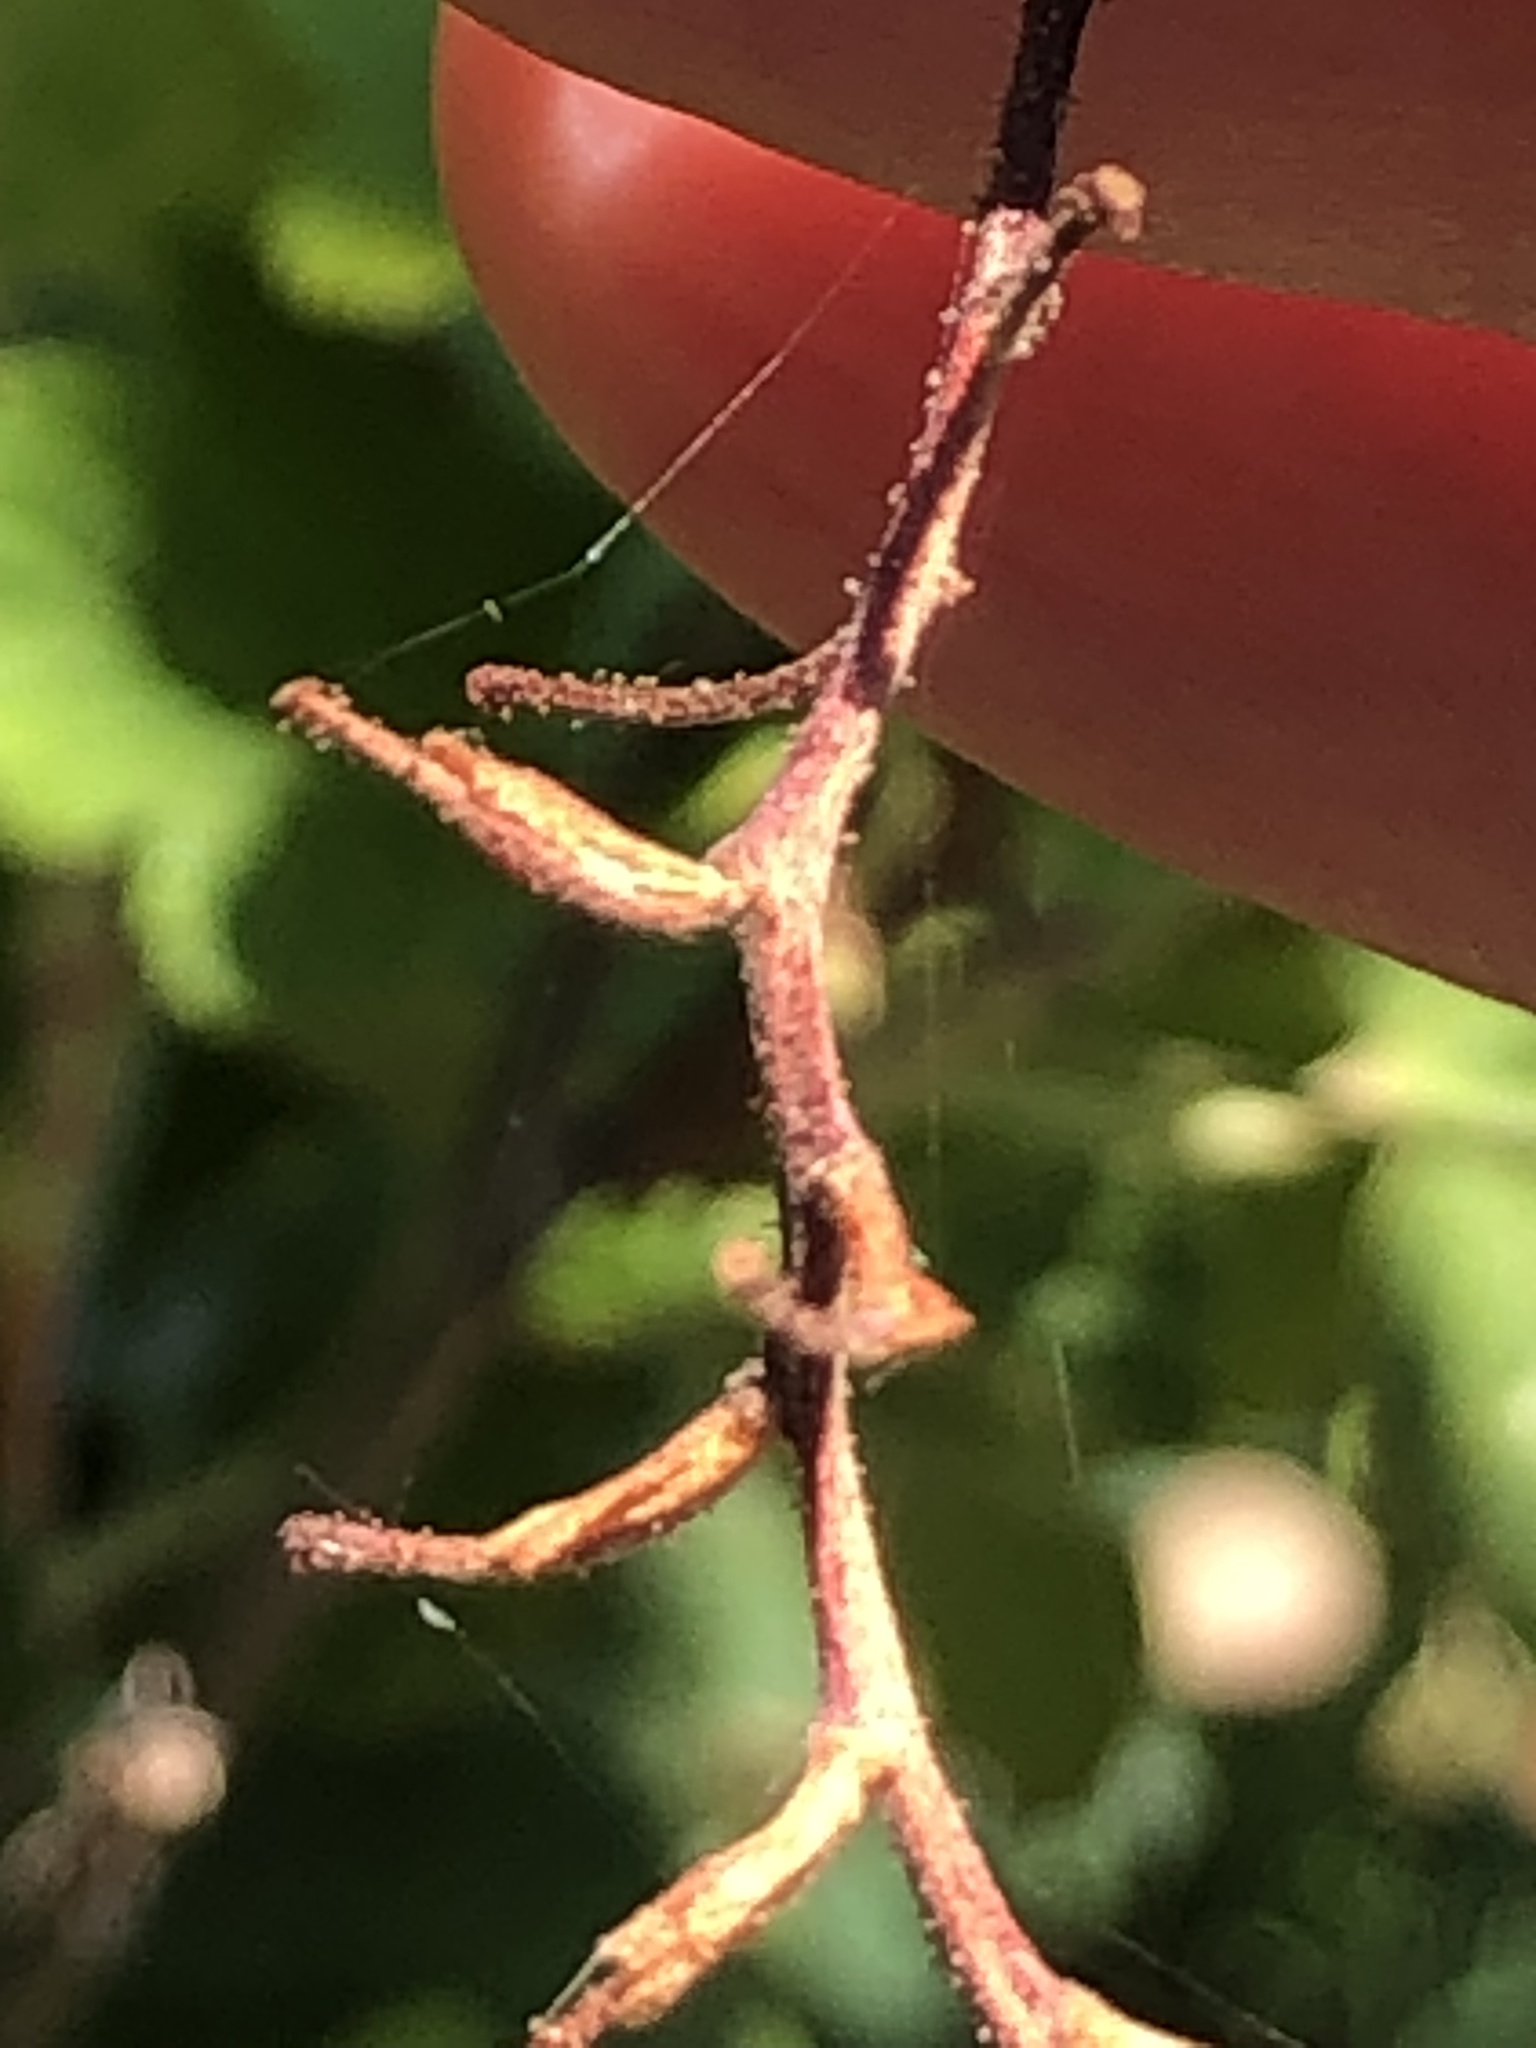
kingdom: Plantae
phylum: Tracheophyta
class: Magnoliopsida
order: Saxifragales
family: Grossulariaceae
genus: Ribes
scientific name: Ribes sanguineum
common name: Flowering currant
